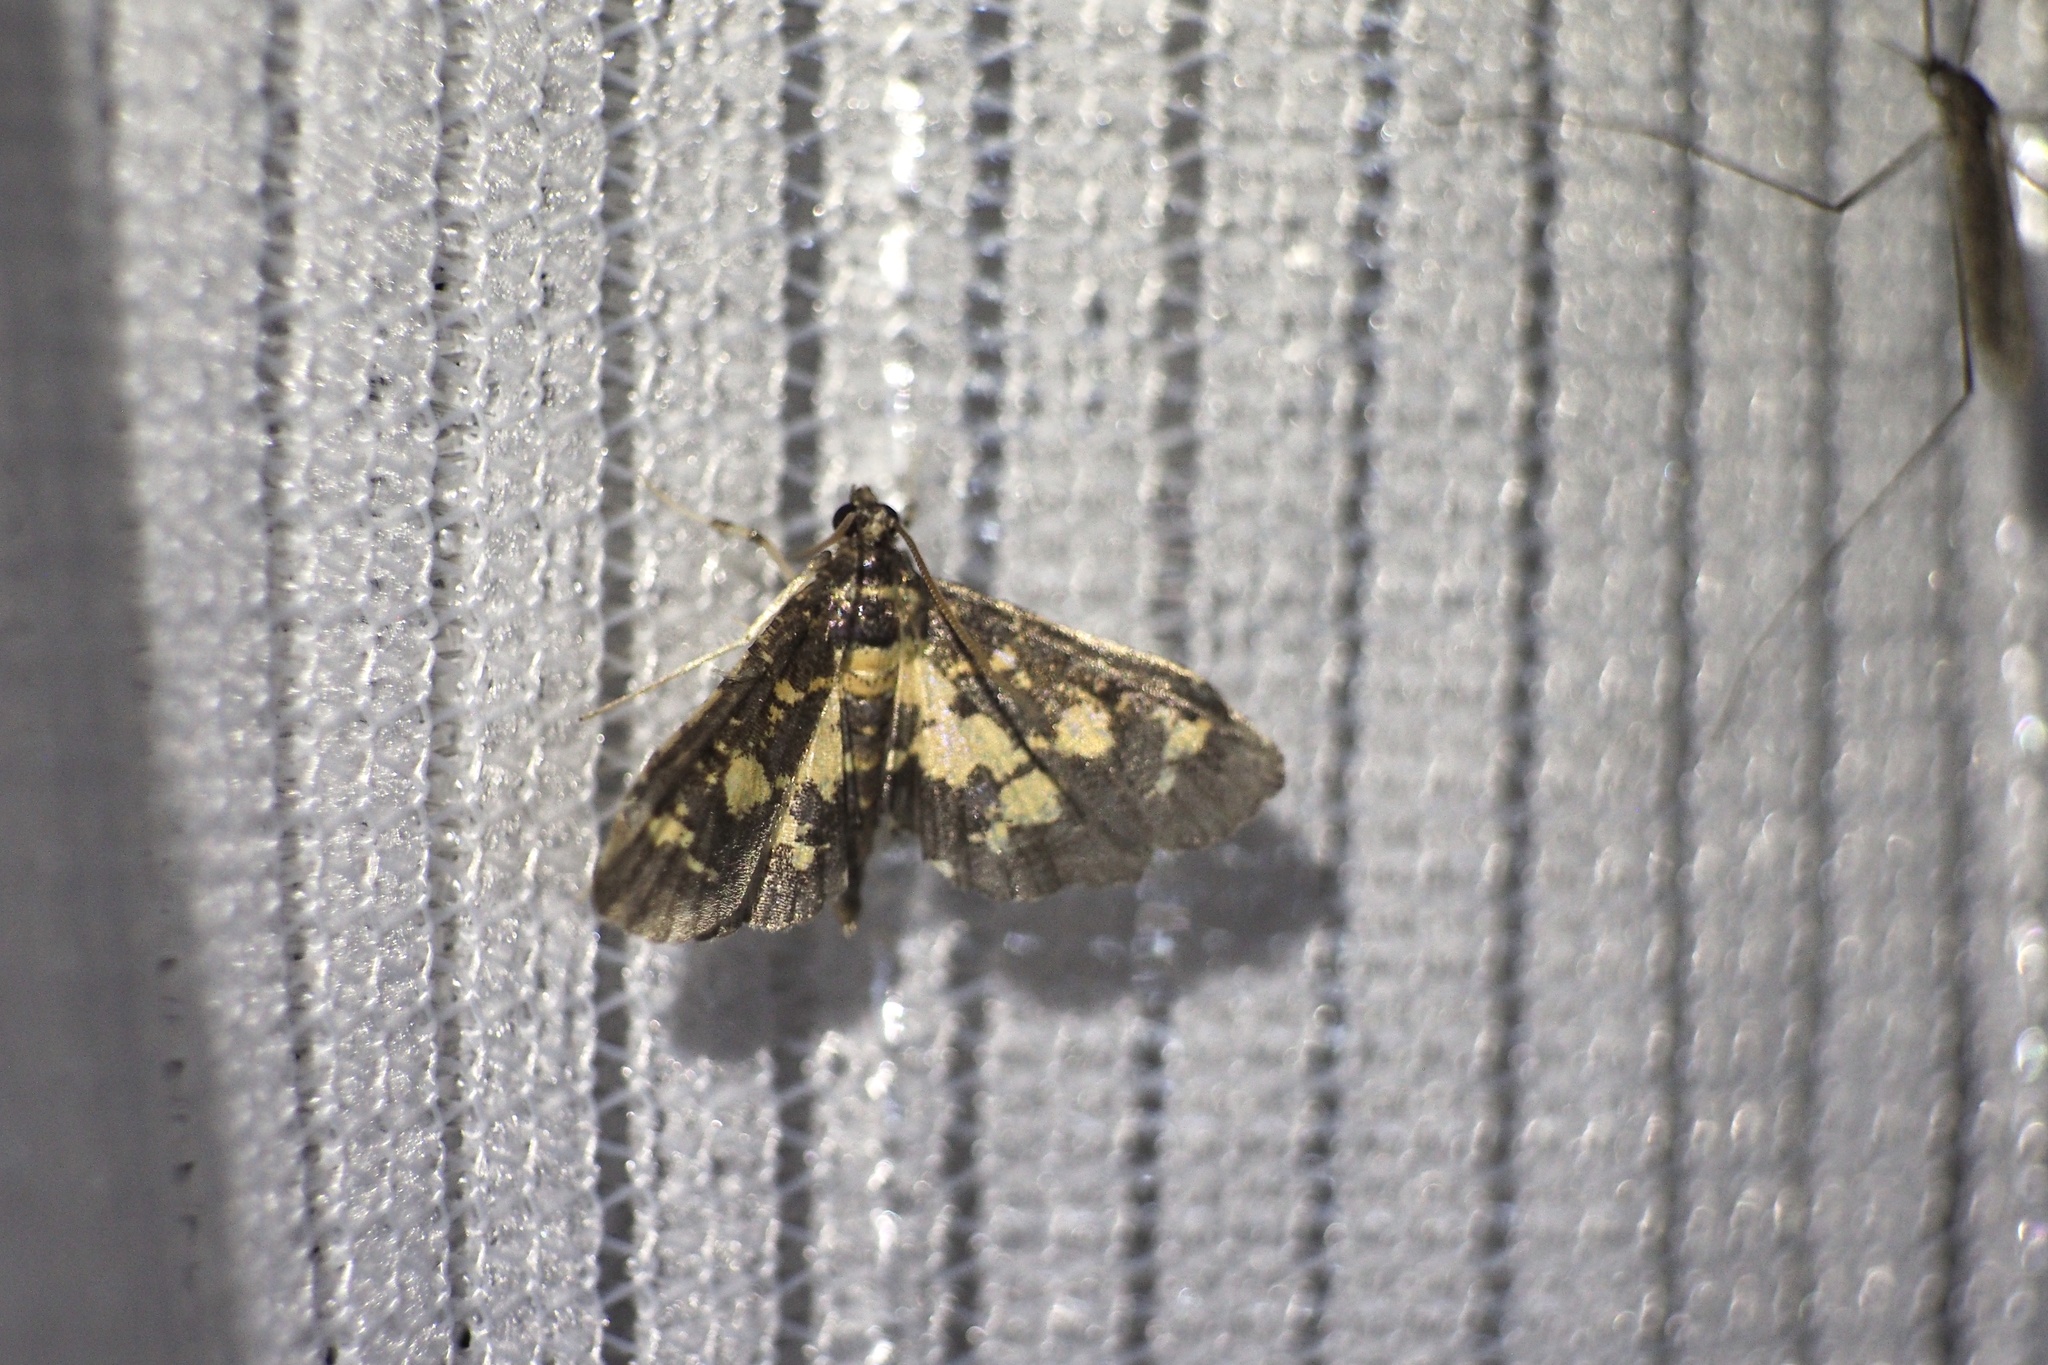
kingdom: Animalia
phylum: Arthropoda
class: Insecta
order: Lepidoptera
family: Crambidae
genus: Eurrhyparodes
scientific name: Eurrhyparodes bracteolalis
